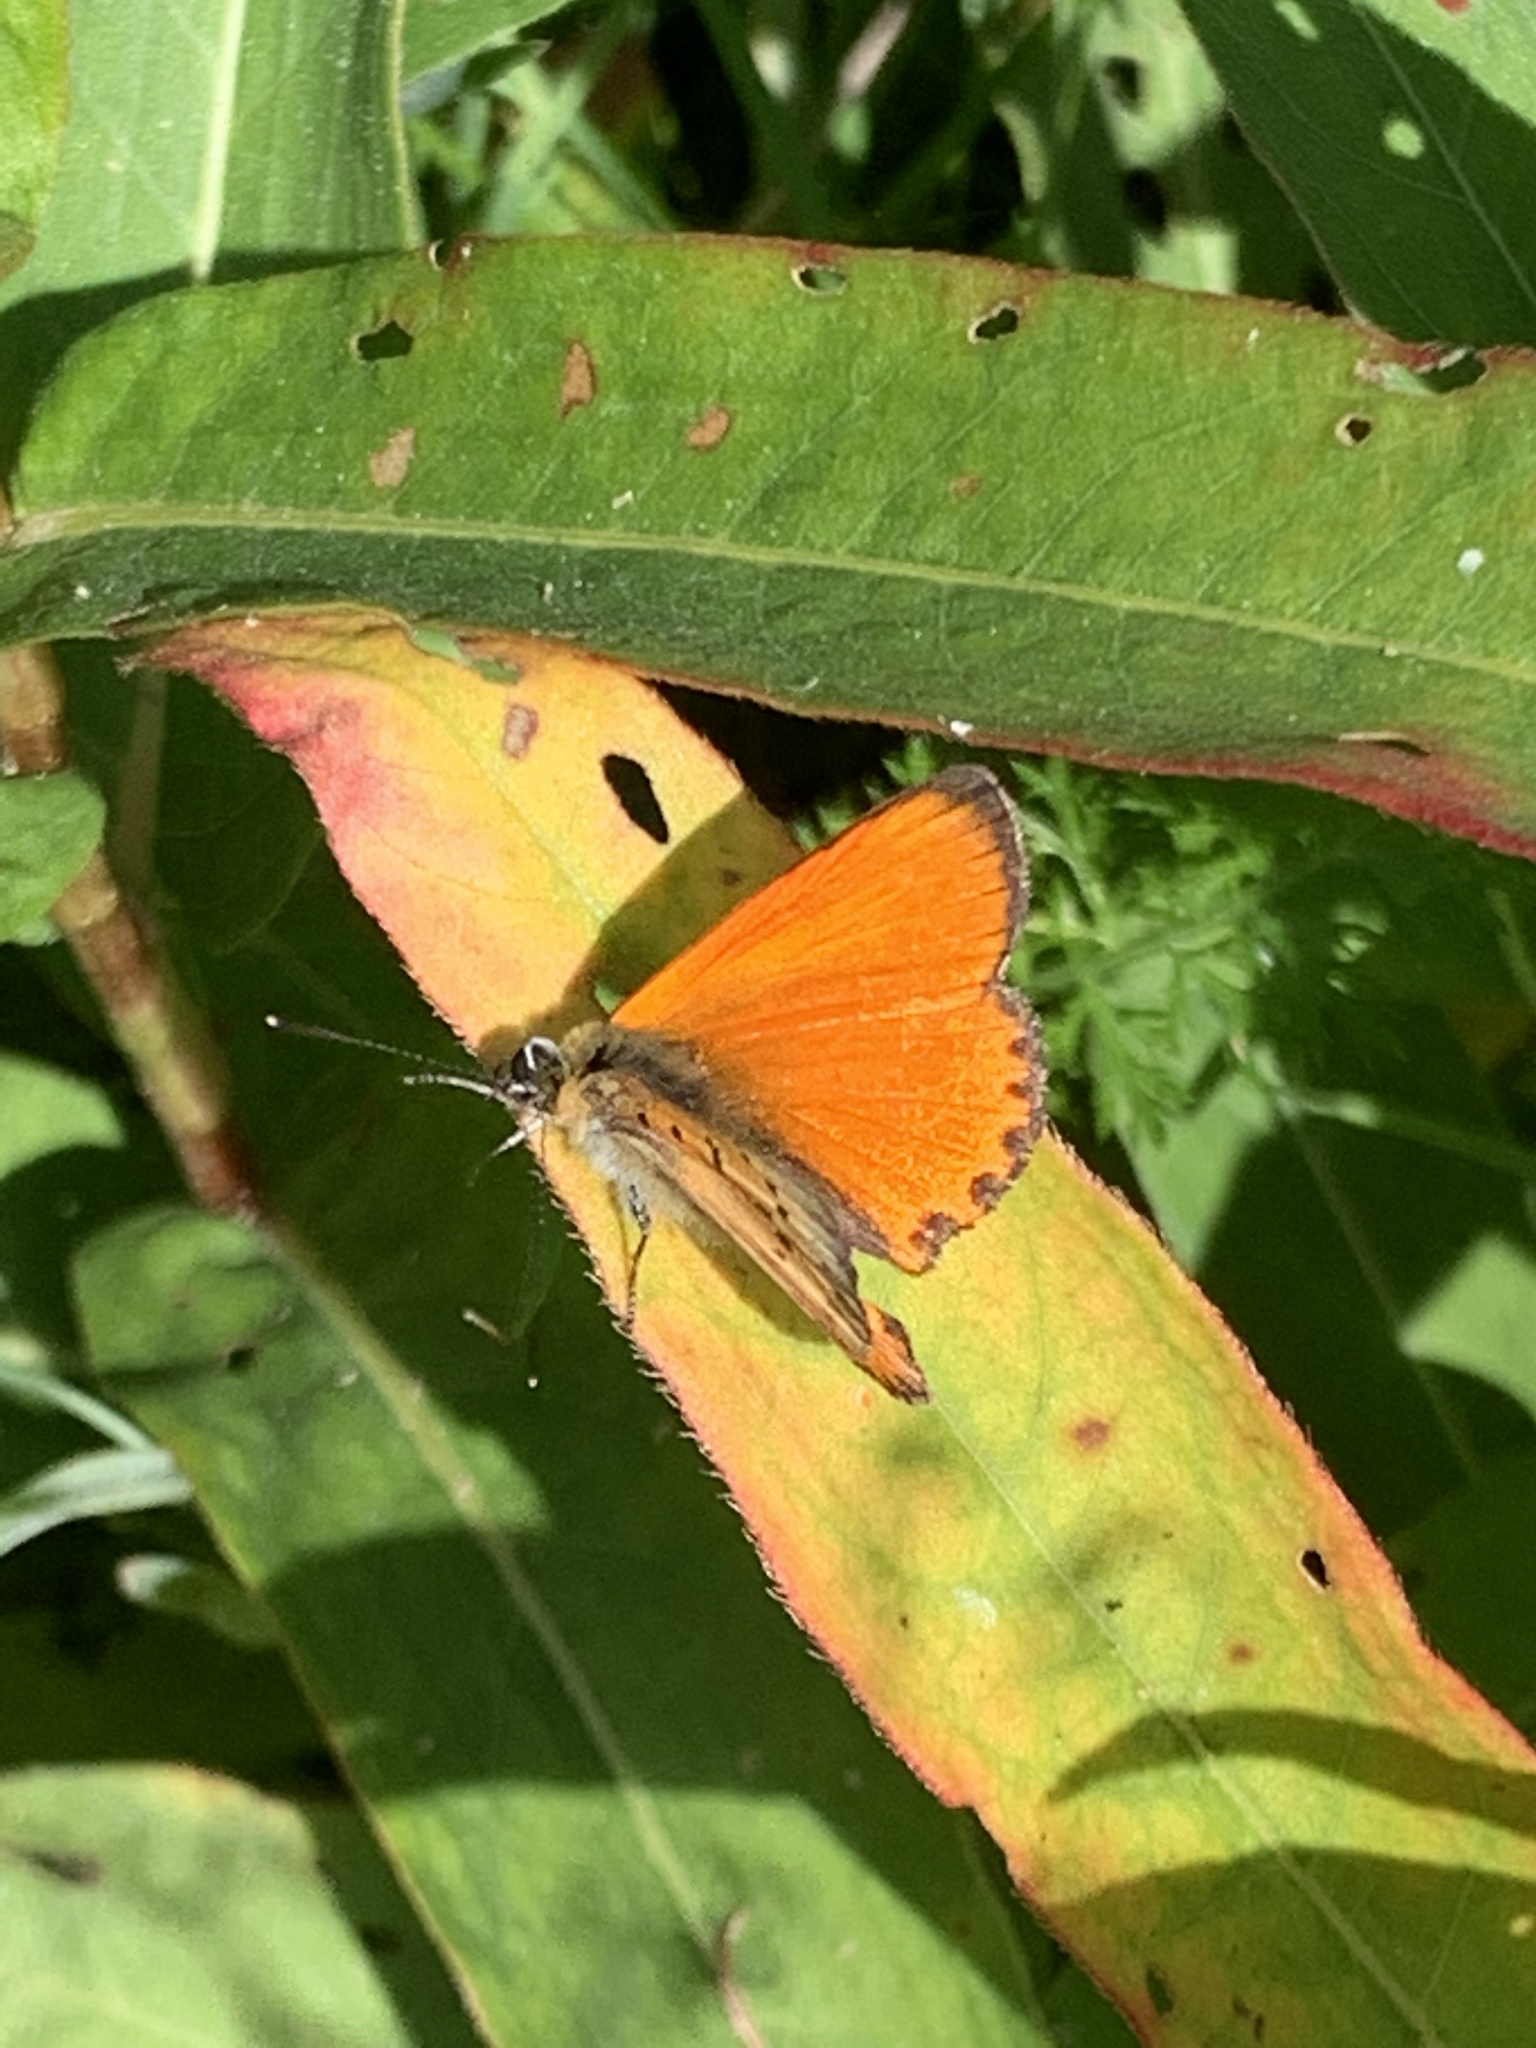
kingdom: Animalia
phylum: Arthropoda
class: Insecta
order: Lepidoptera
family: Lycaenidae
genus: Lycaena
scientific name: Lycaena virgaureae
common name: Scarce copper
